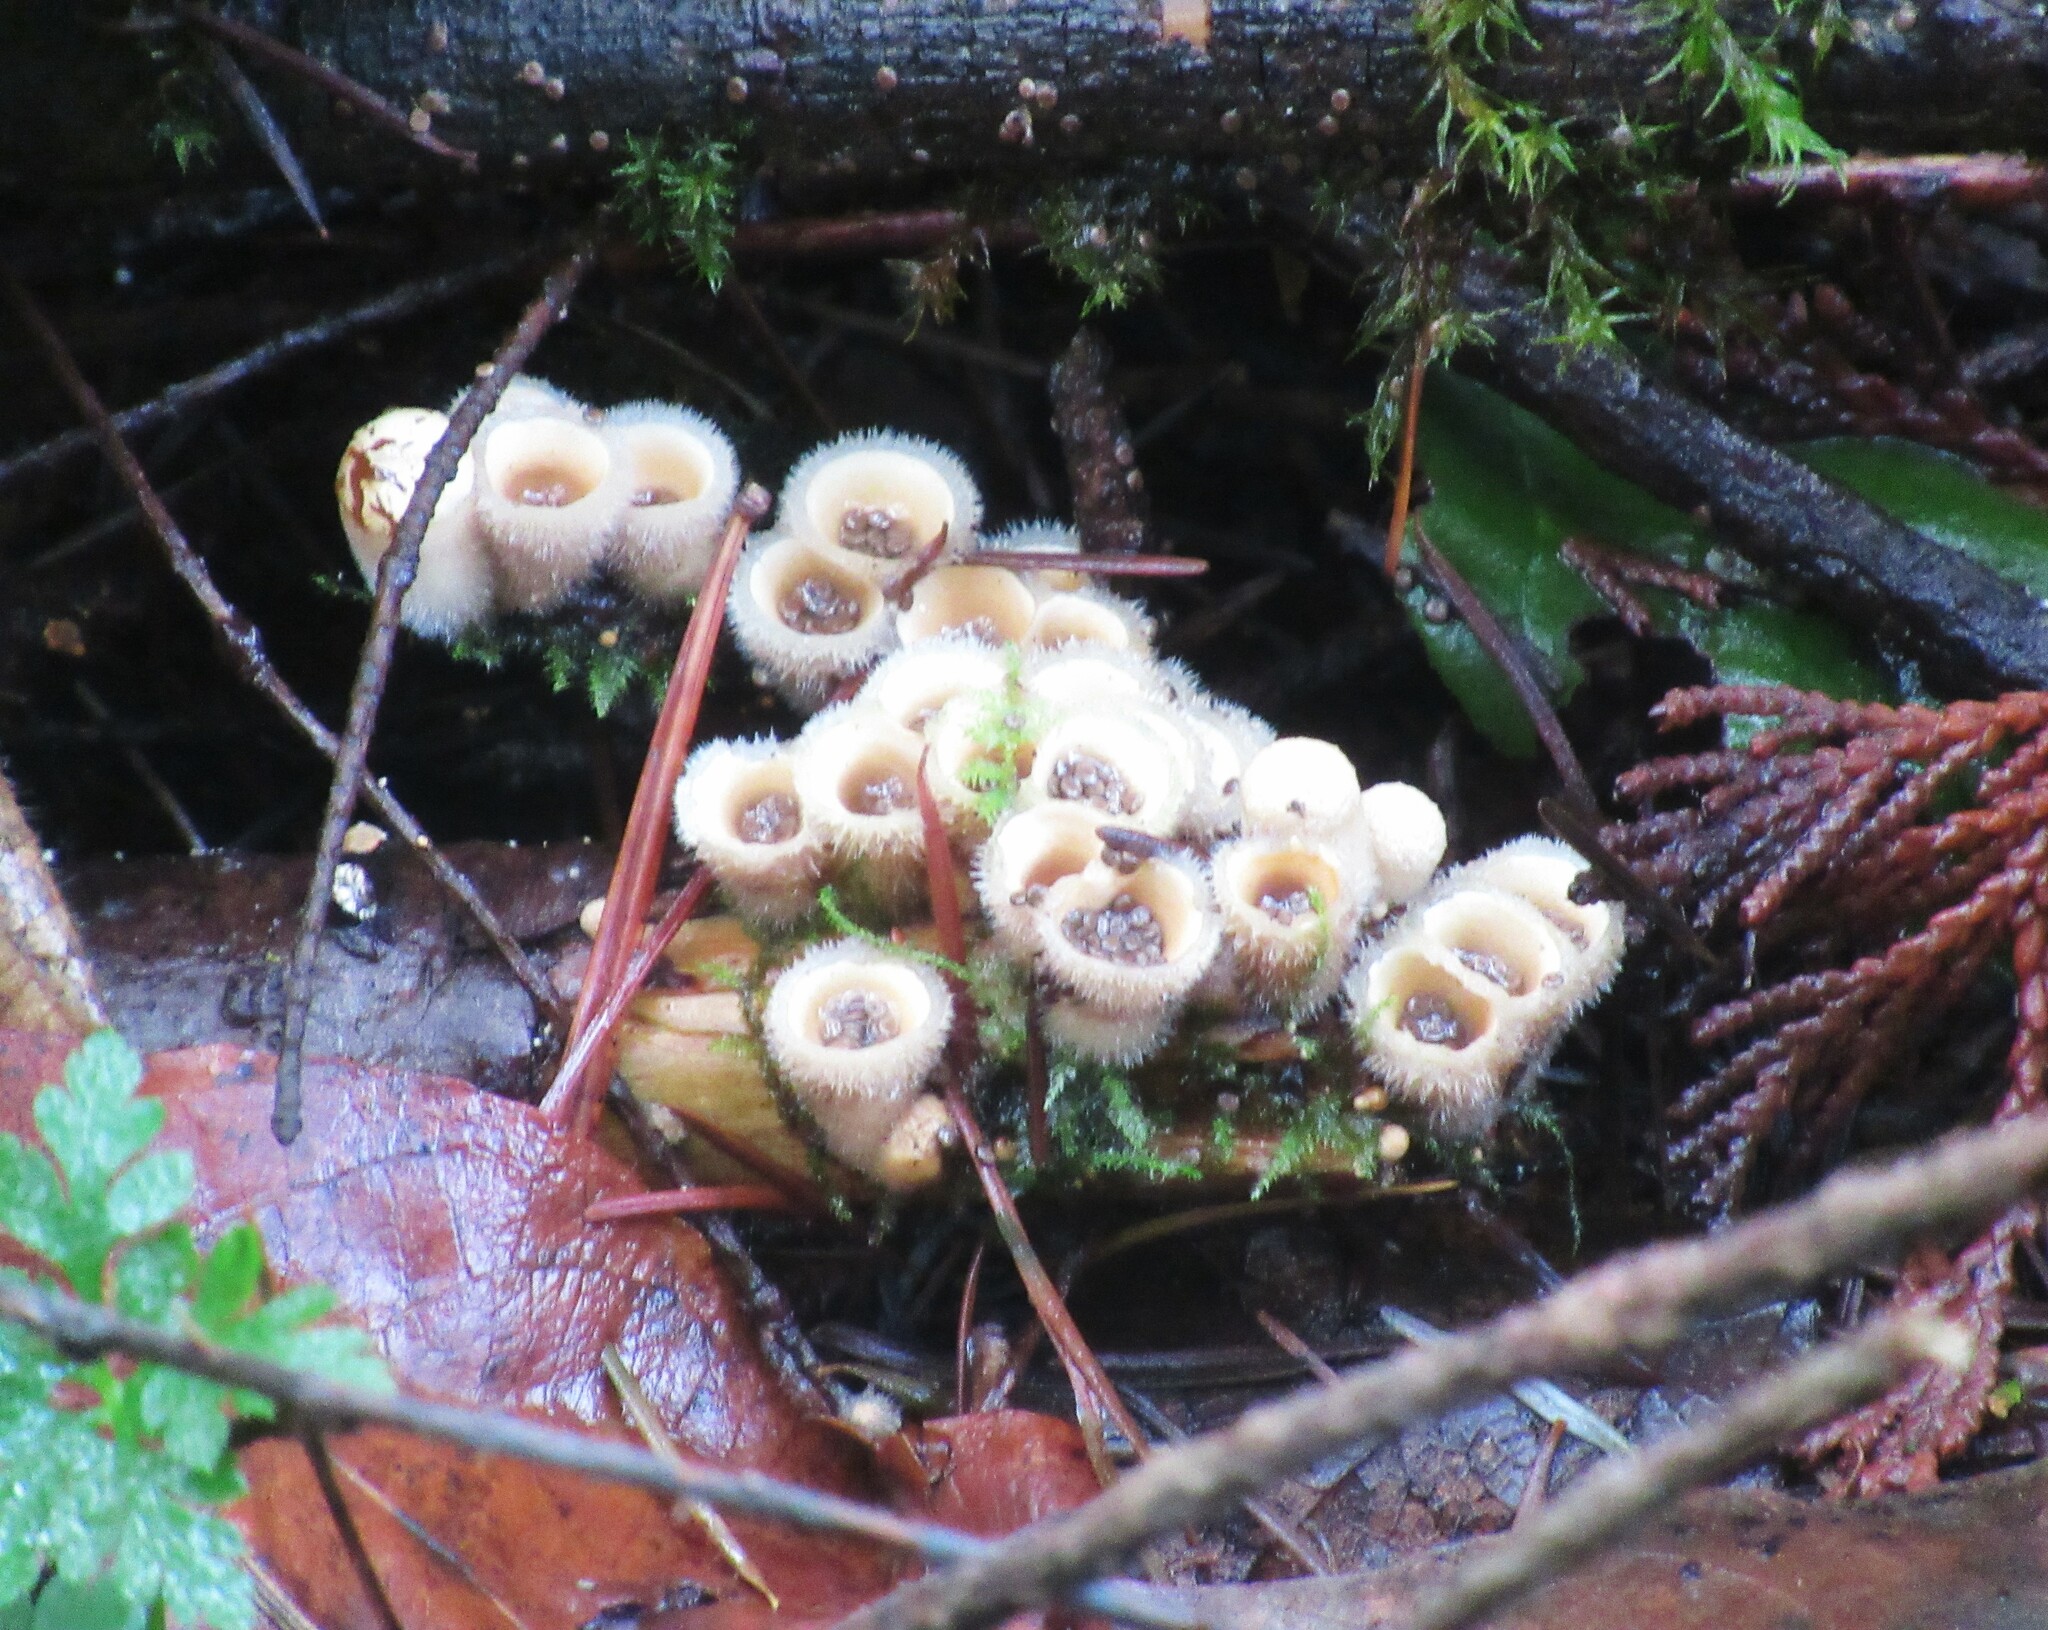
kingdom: Fungi
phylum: Basidiomycota
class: Agaricomycetes
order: Agaricales
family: Agaricaceae
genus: Nidula
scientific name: Nidula niveotomentosa
